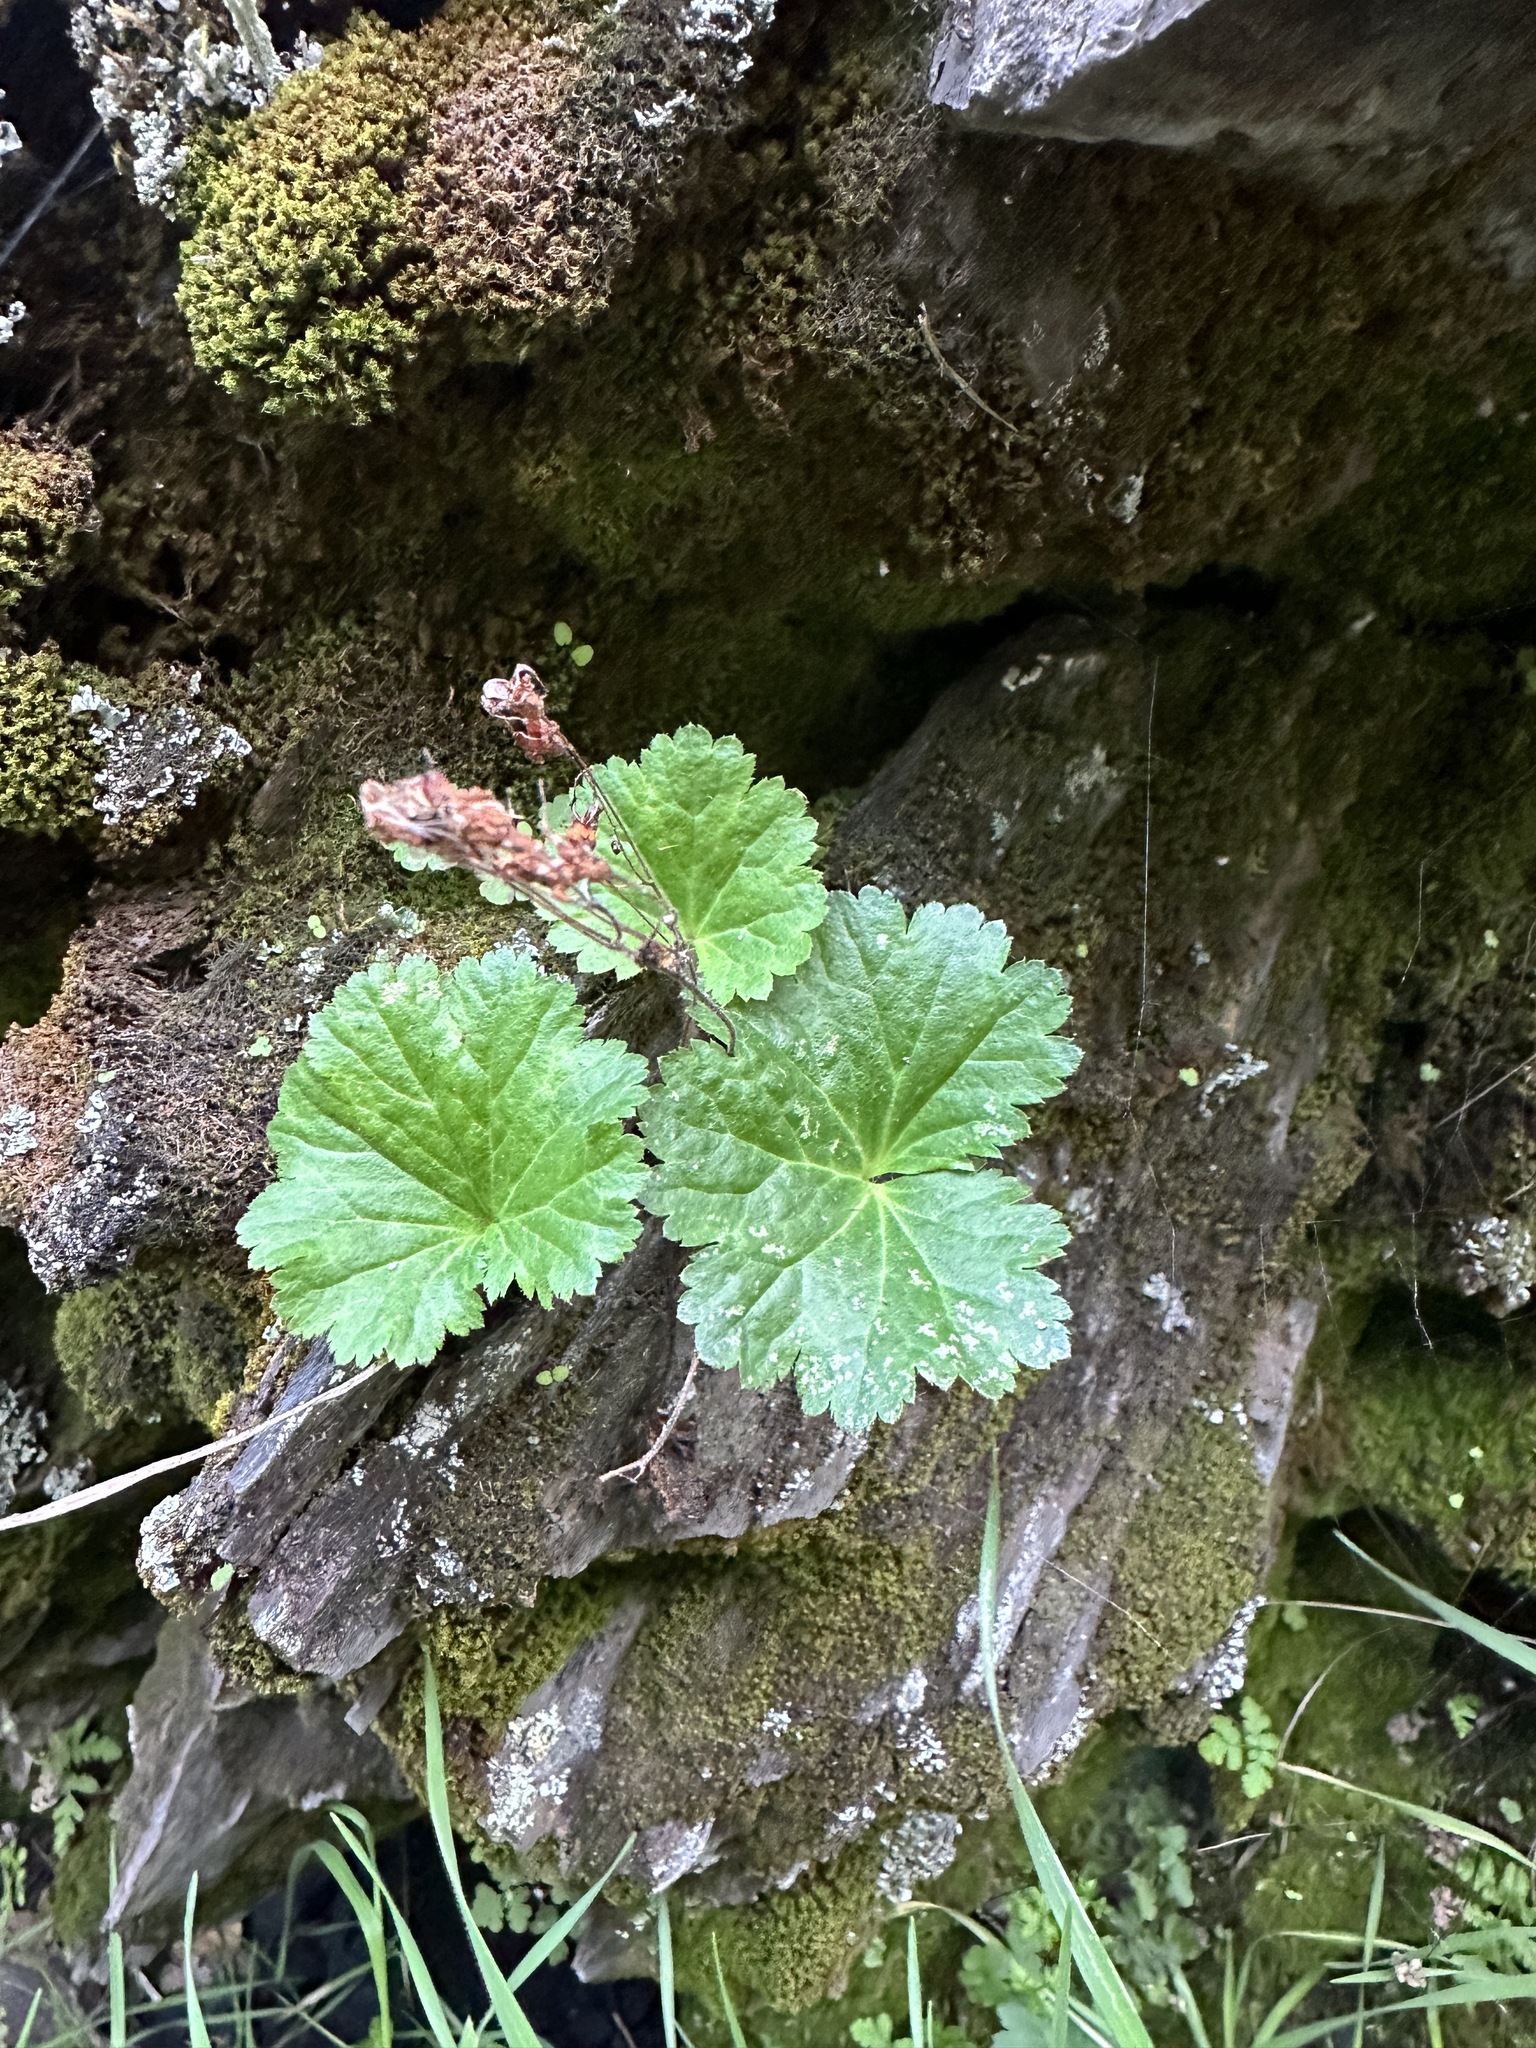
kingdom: Plantae
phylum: Tracheophyta
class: Magnoliopsida
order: Saxifragales
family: Saxifragaceae
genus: Jepsonia
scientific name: Jepsonia heterandra
